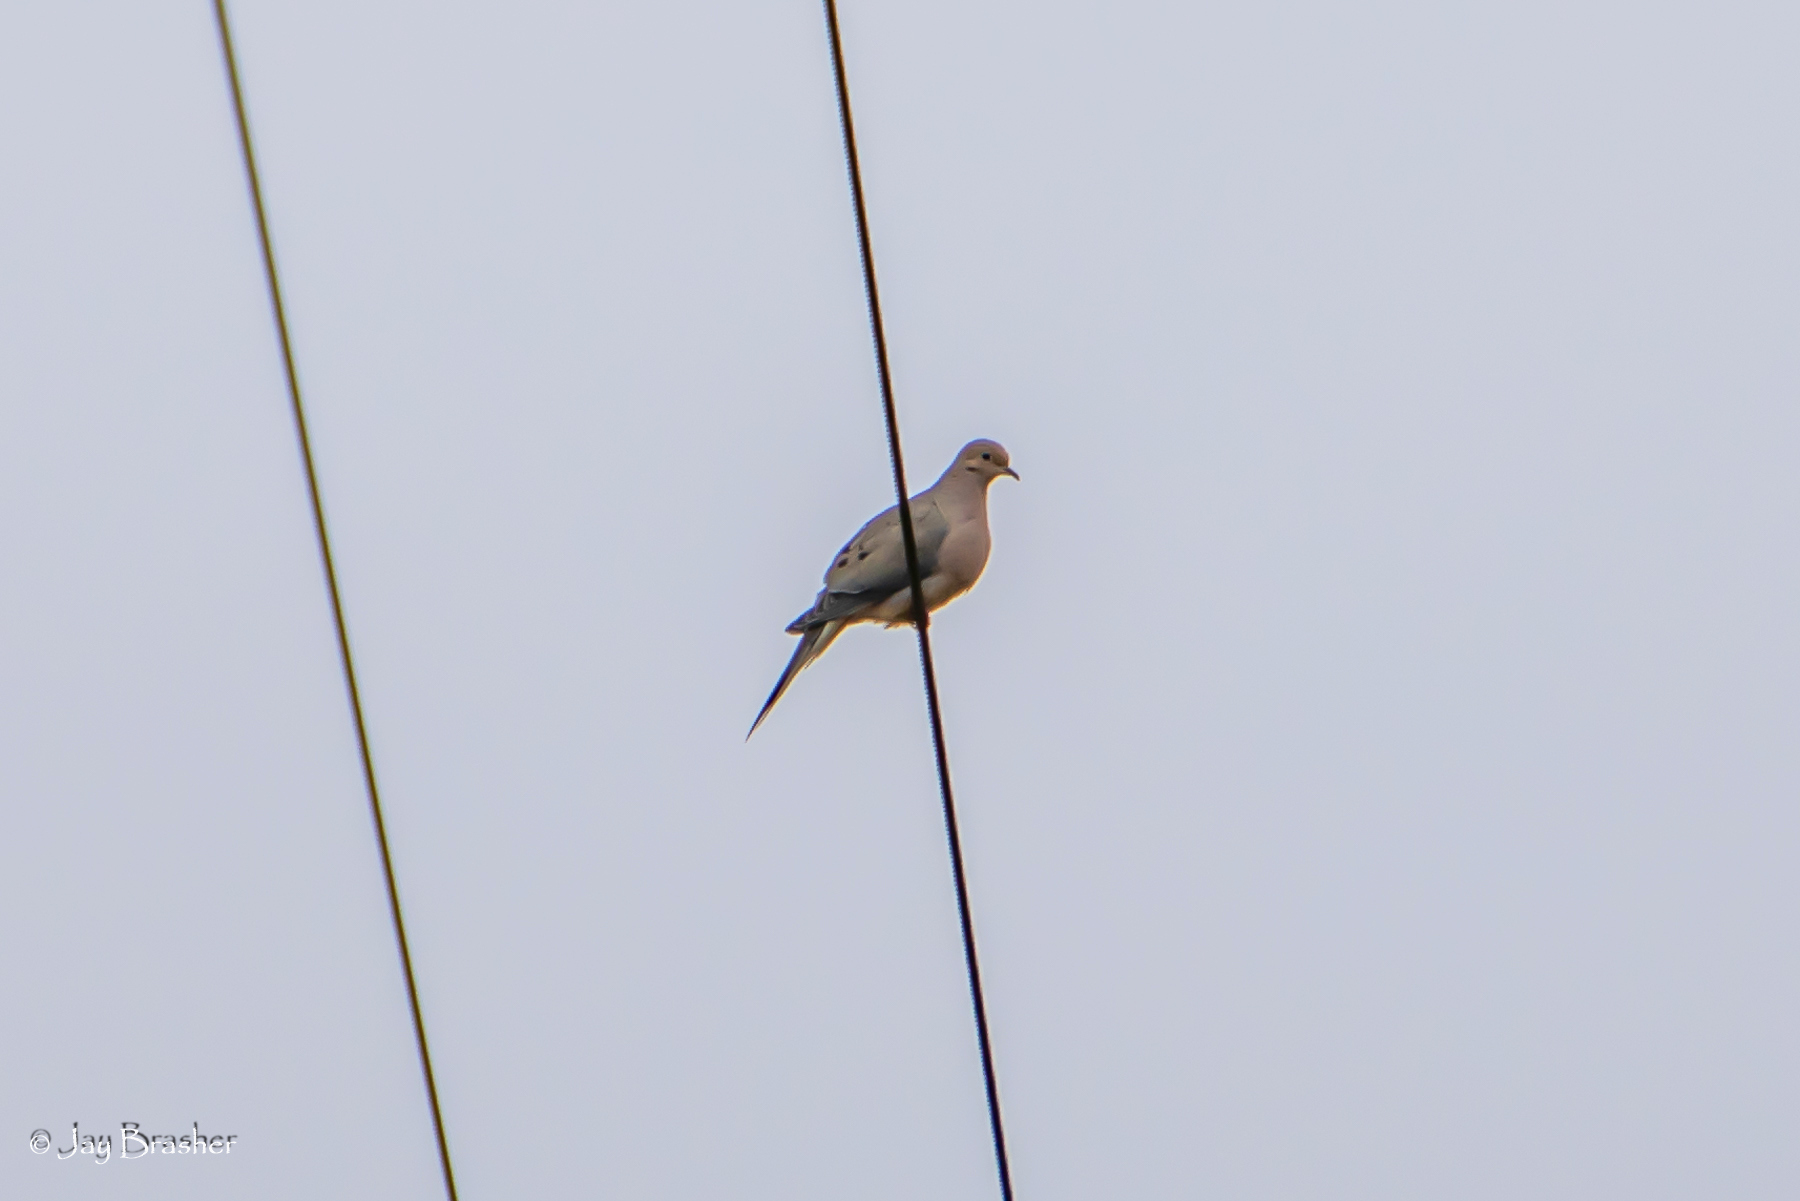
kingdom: Animalia
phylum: Chordata
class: Aves
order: Columbiformes
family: Columbidae
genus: Zenaida
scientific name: Zenaida macroura
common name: Mourning dove
